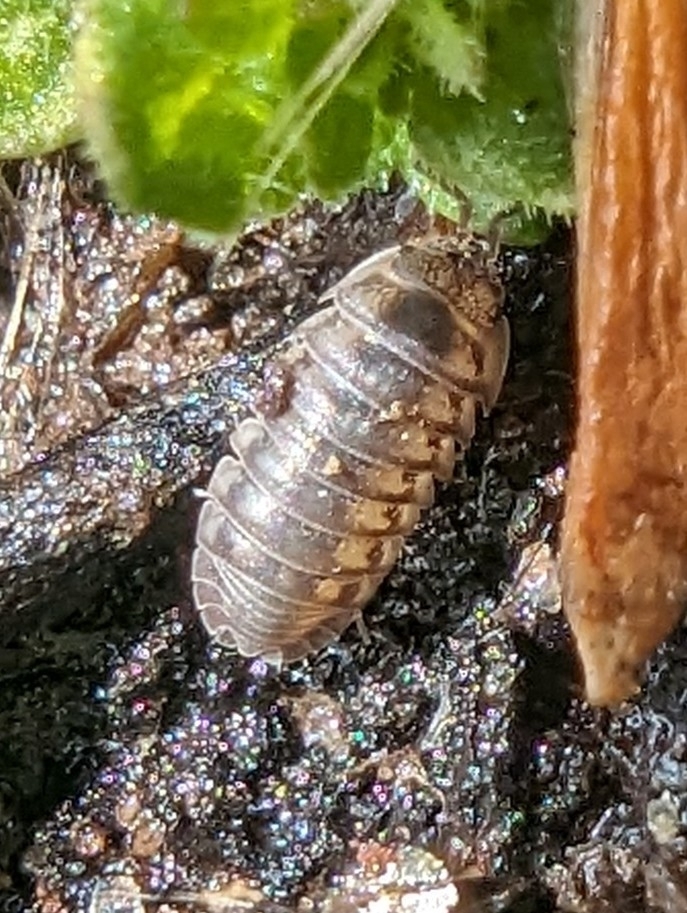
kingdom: Animalia
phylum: Arthropoda
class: Malacostraca
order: Isopoda
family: Armadillidiidae
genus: Armadillidium
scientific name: Armadillidium nasatum
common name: Isopod
